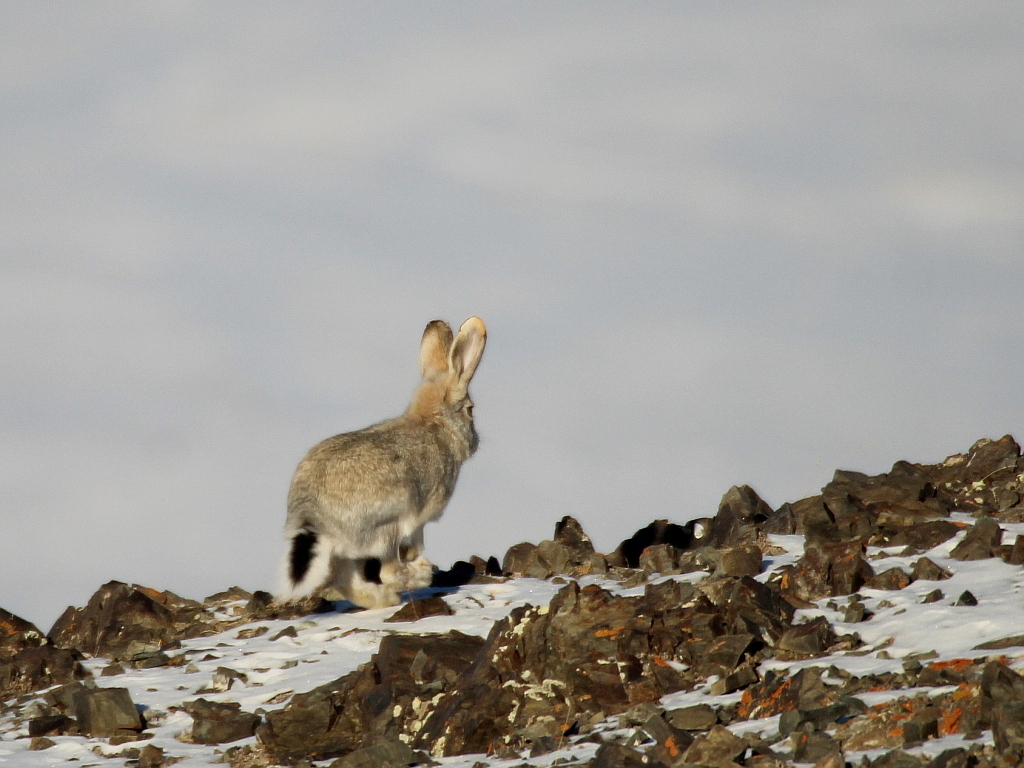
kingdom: Animalia
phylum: Chordata
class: Mammalia
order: Lagomorpha
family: Leporidae
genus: Lepus
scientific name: Lepus tolai
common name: Tolai hare
